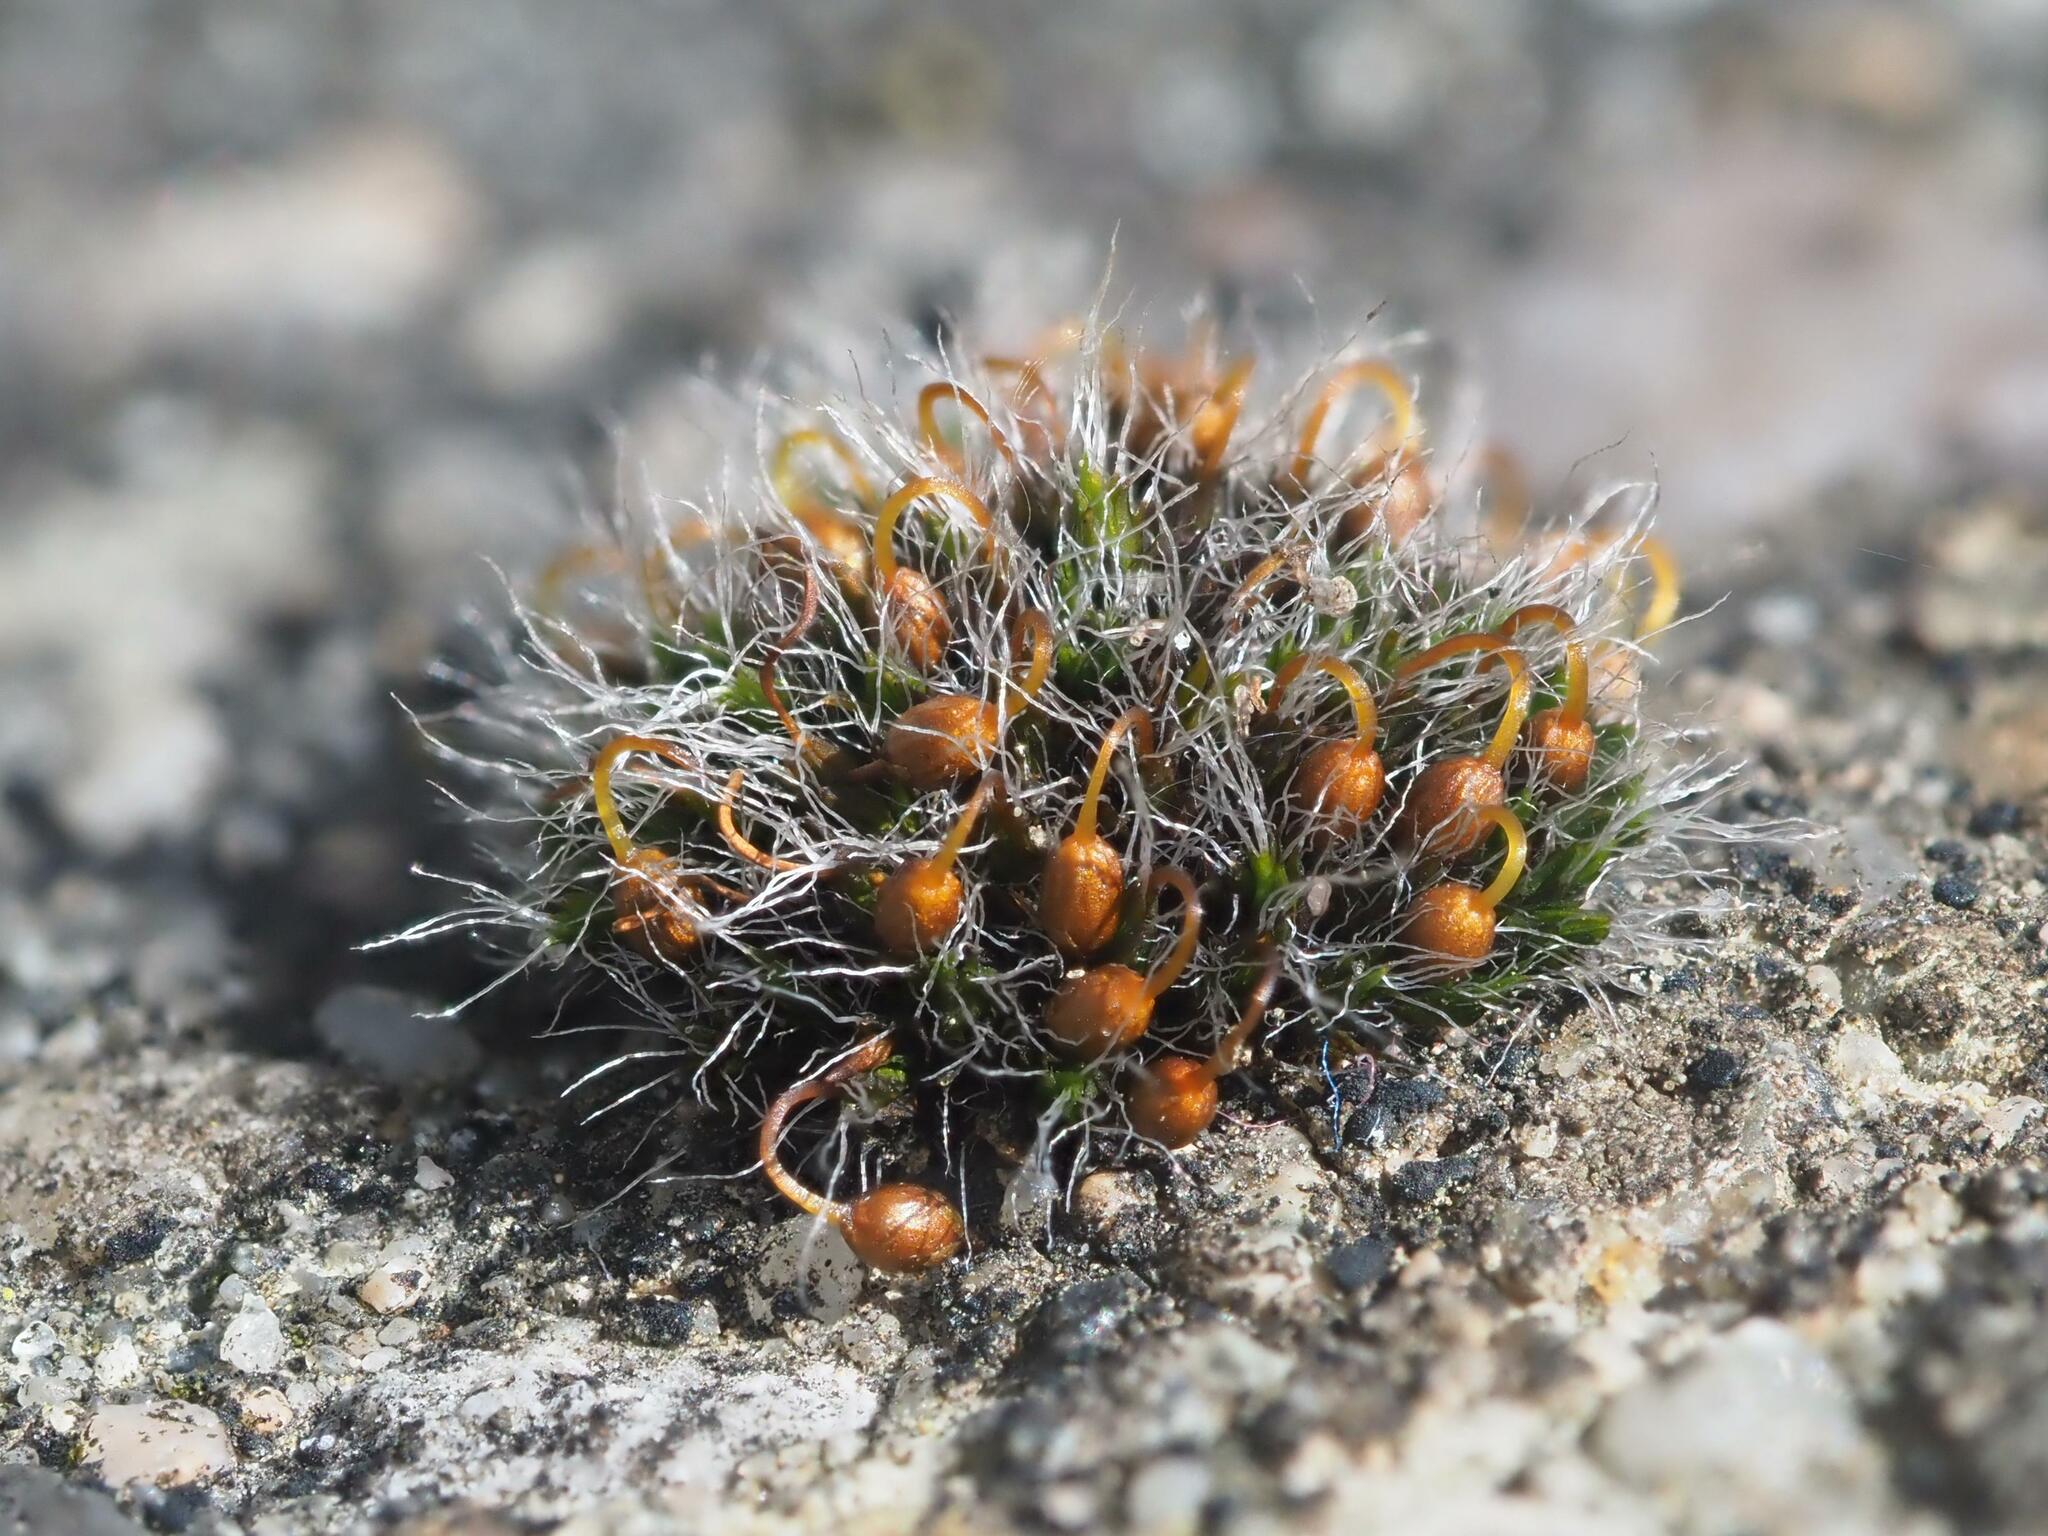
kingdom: Plantae
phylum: Bryophyta
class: Bryopsida
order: Grimmiales
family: Grimmiaceae
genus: Grimmia
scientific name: Grimmia pulvinata
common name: Grey-cushioned grimmia
